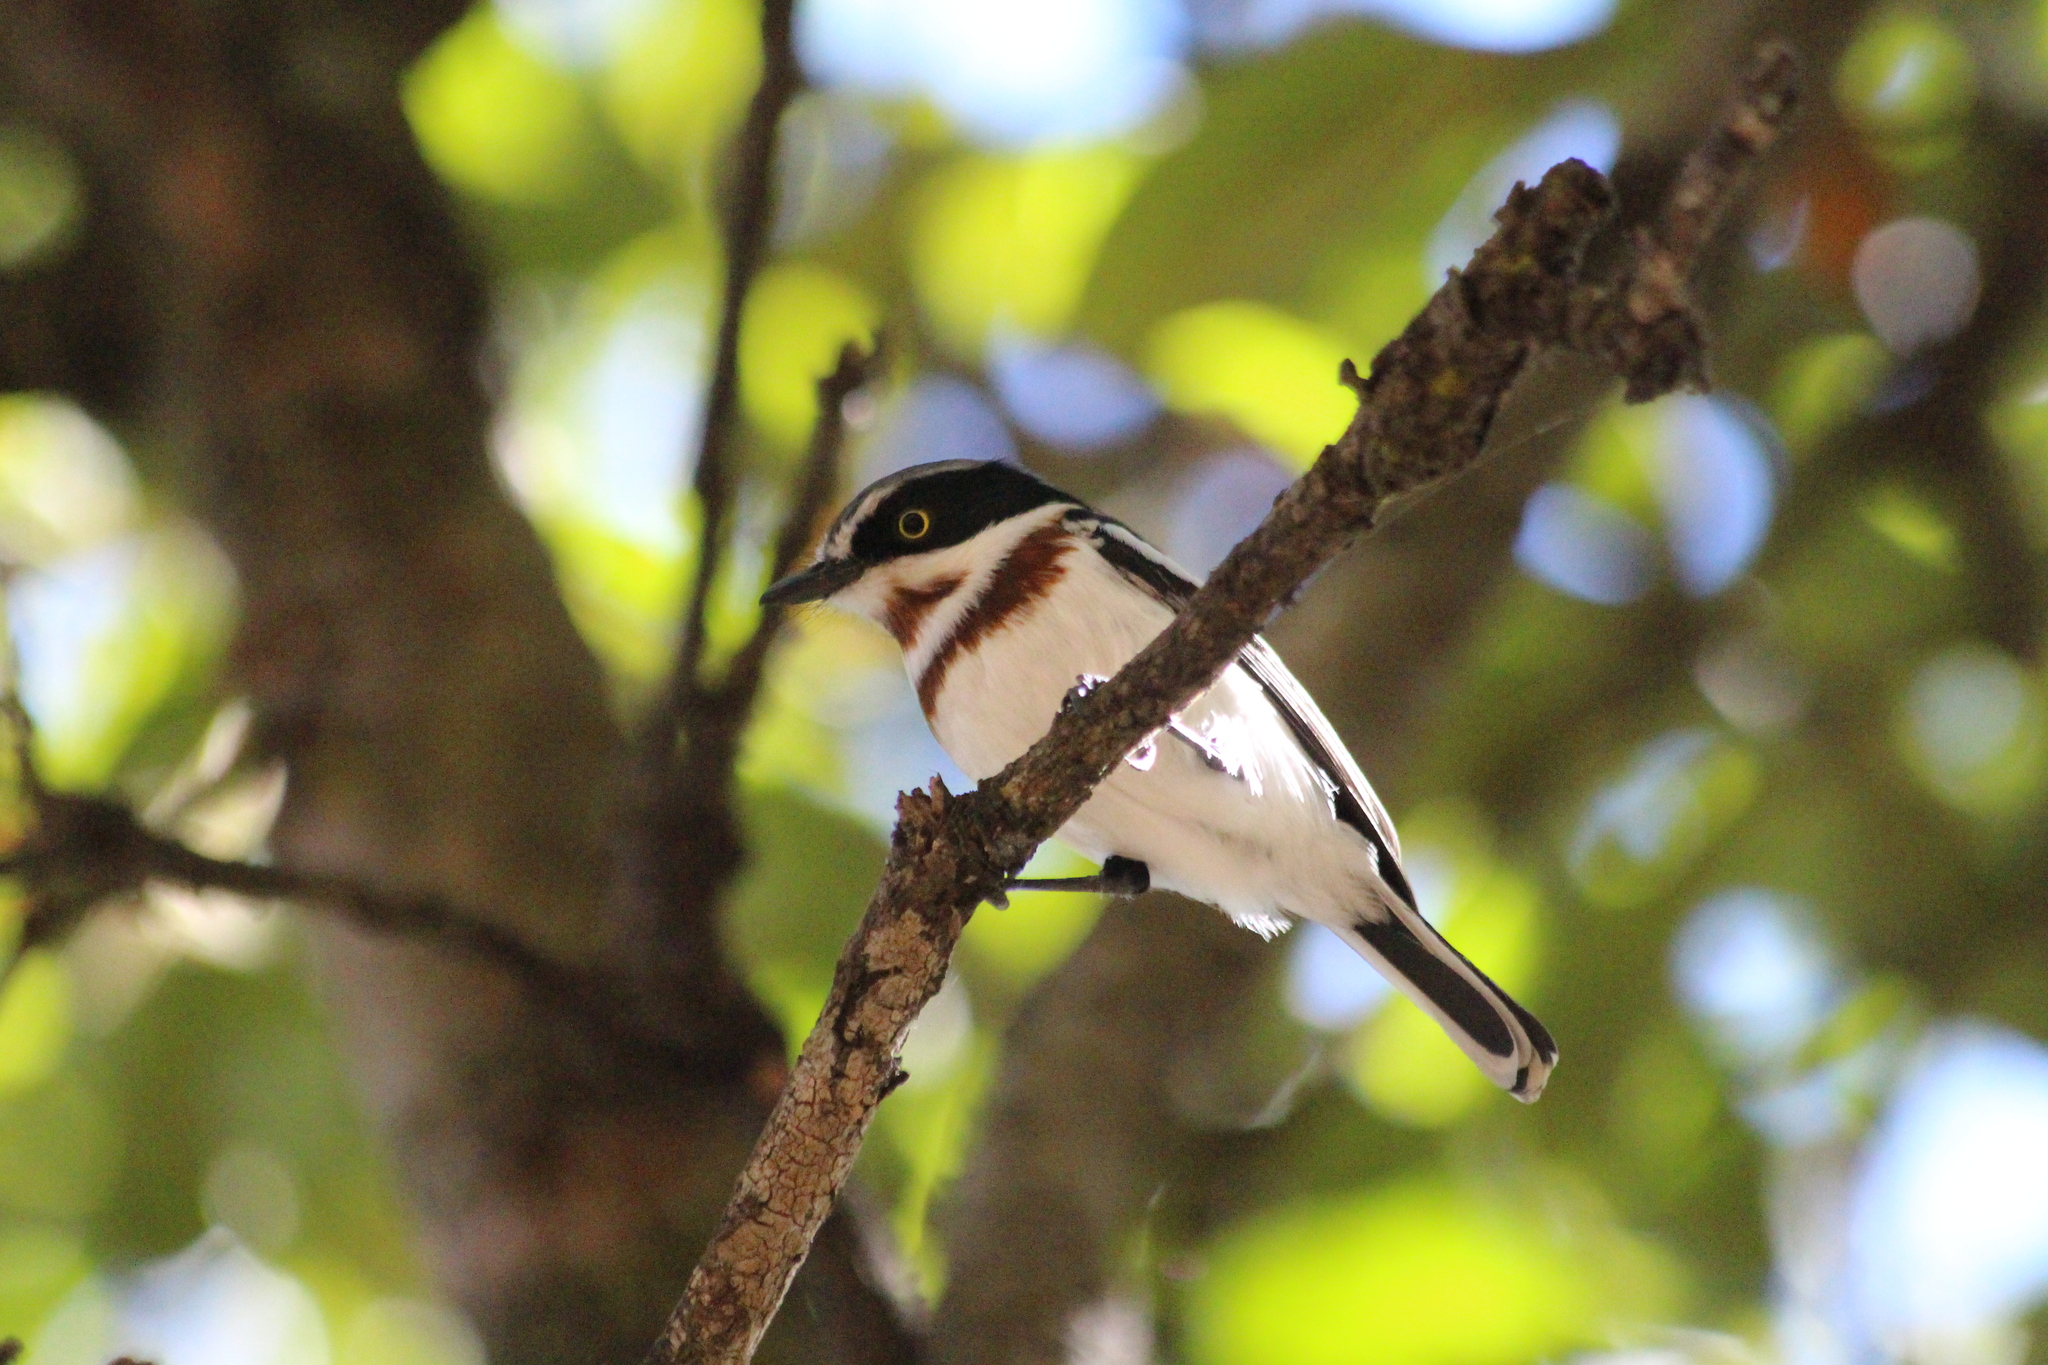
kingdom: Animalia
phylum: Chordata
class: Aves
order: Passeriformes
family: Platysteiridae
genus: Batis
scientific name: Batis molitor
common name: Chinspot batis
